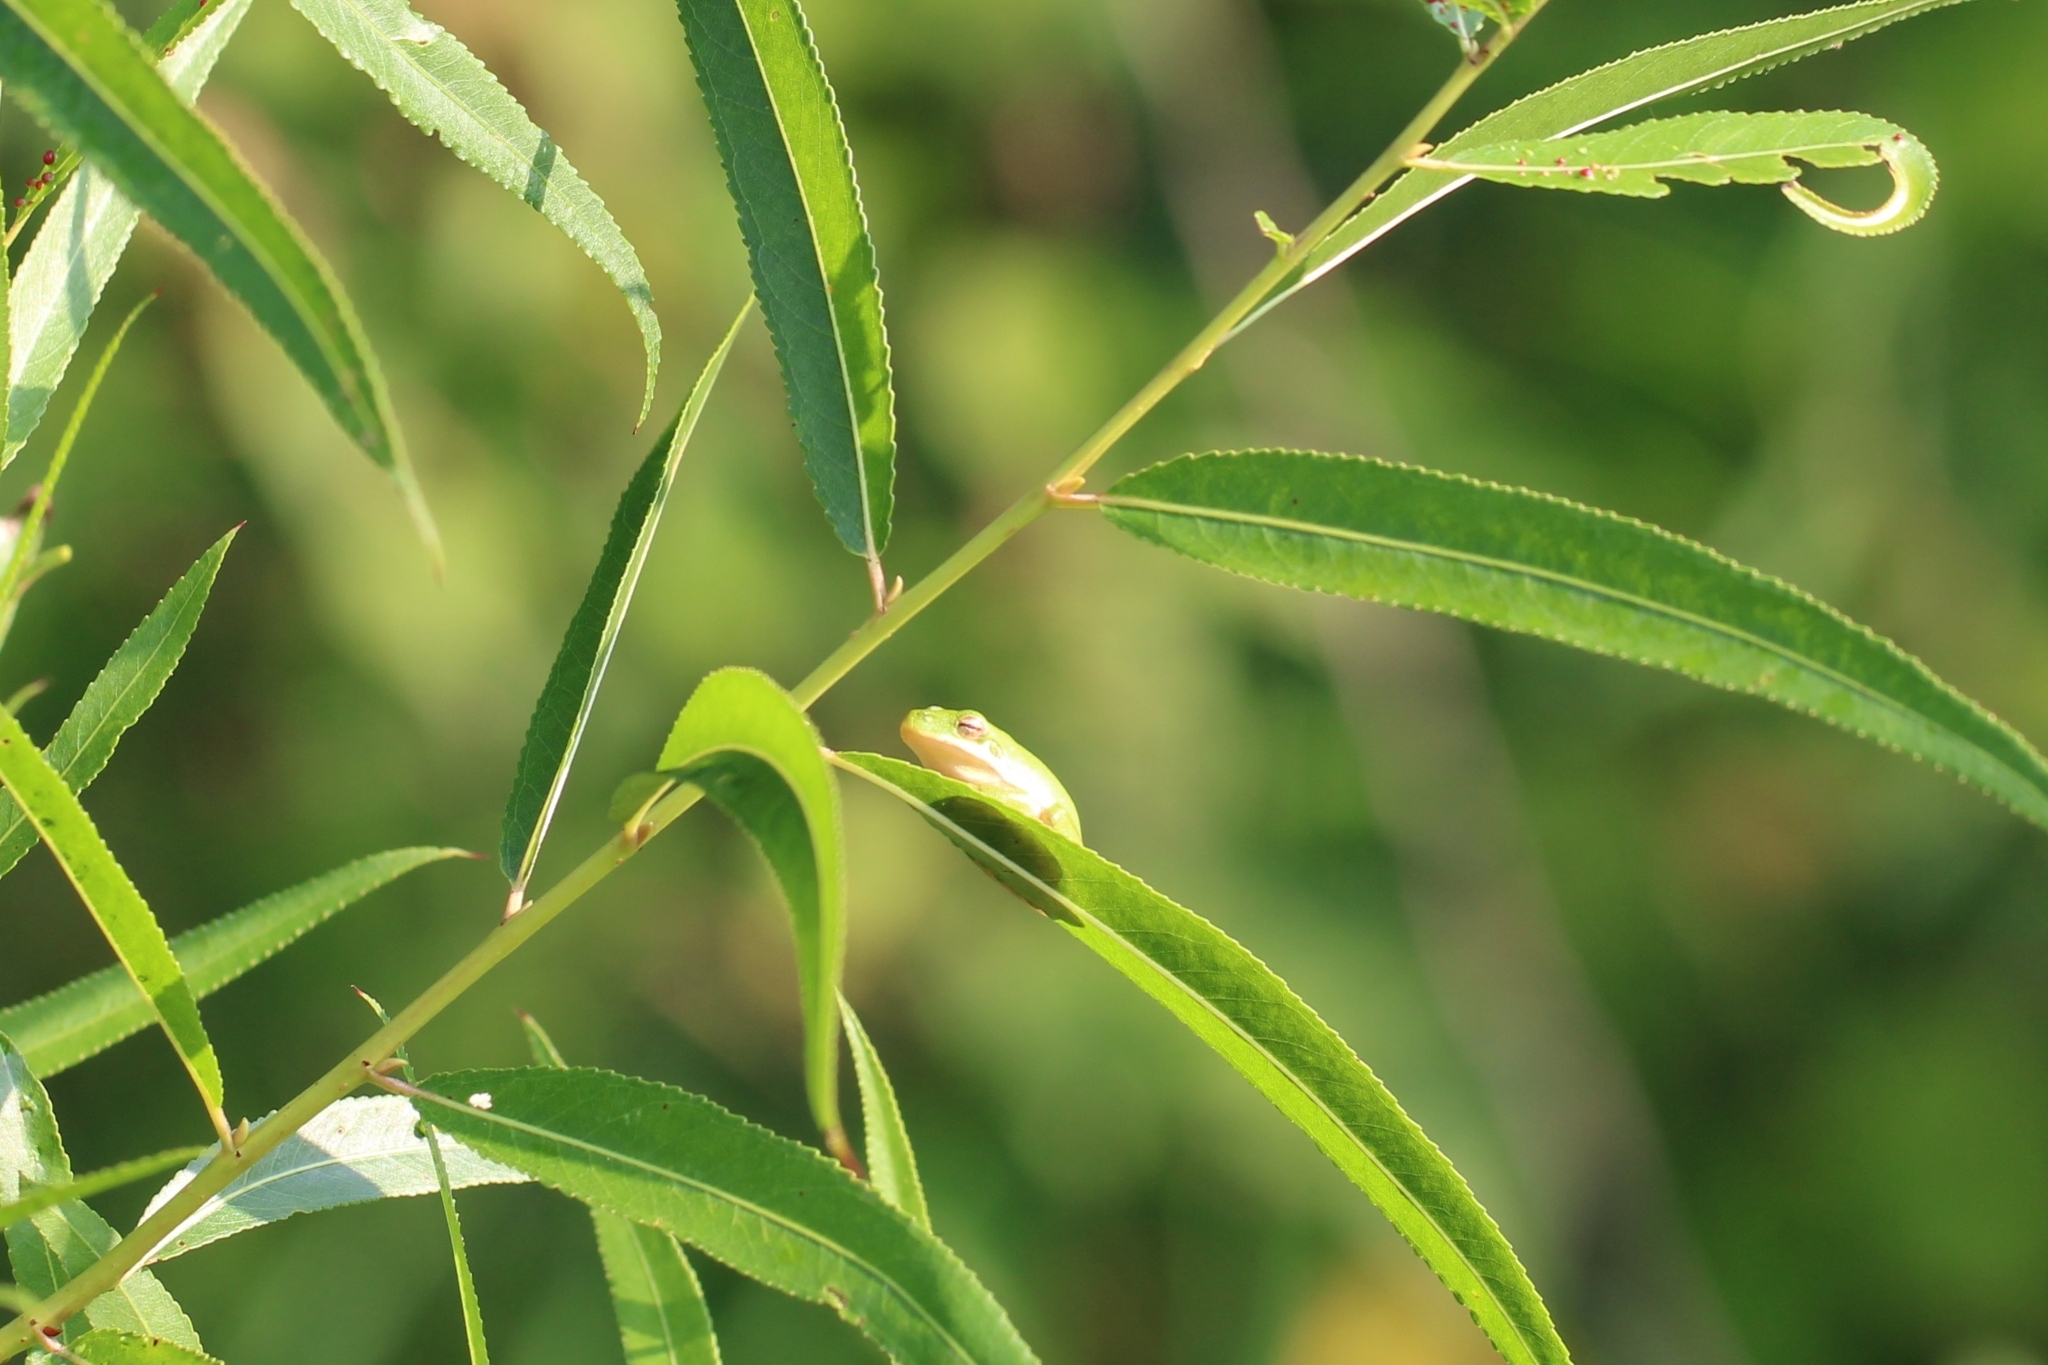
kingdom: Animalia
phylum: Chordata
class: Amphibia
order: Anura
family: Hylidae
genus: Dryophytes
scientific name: Dryophytes cinereus
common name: Green treefrog
